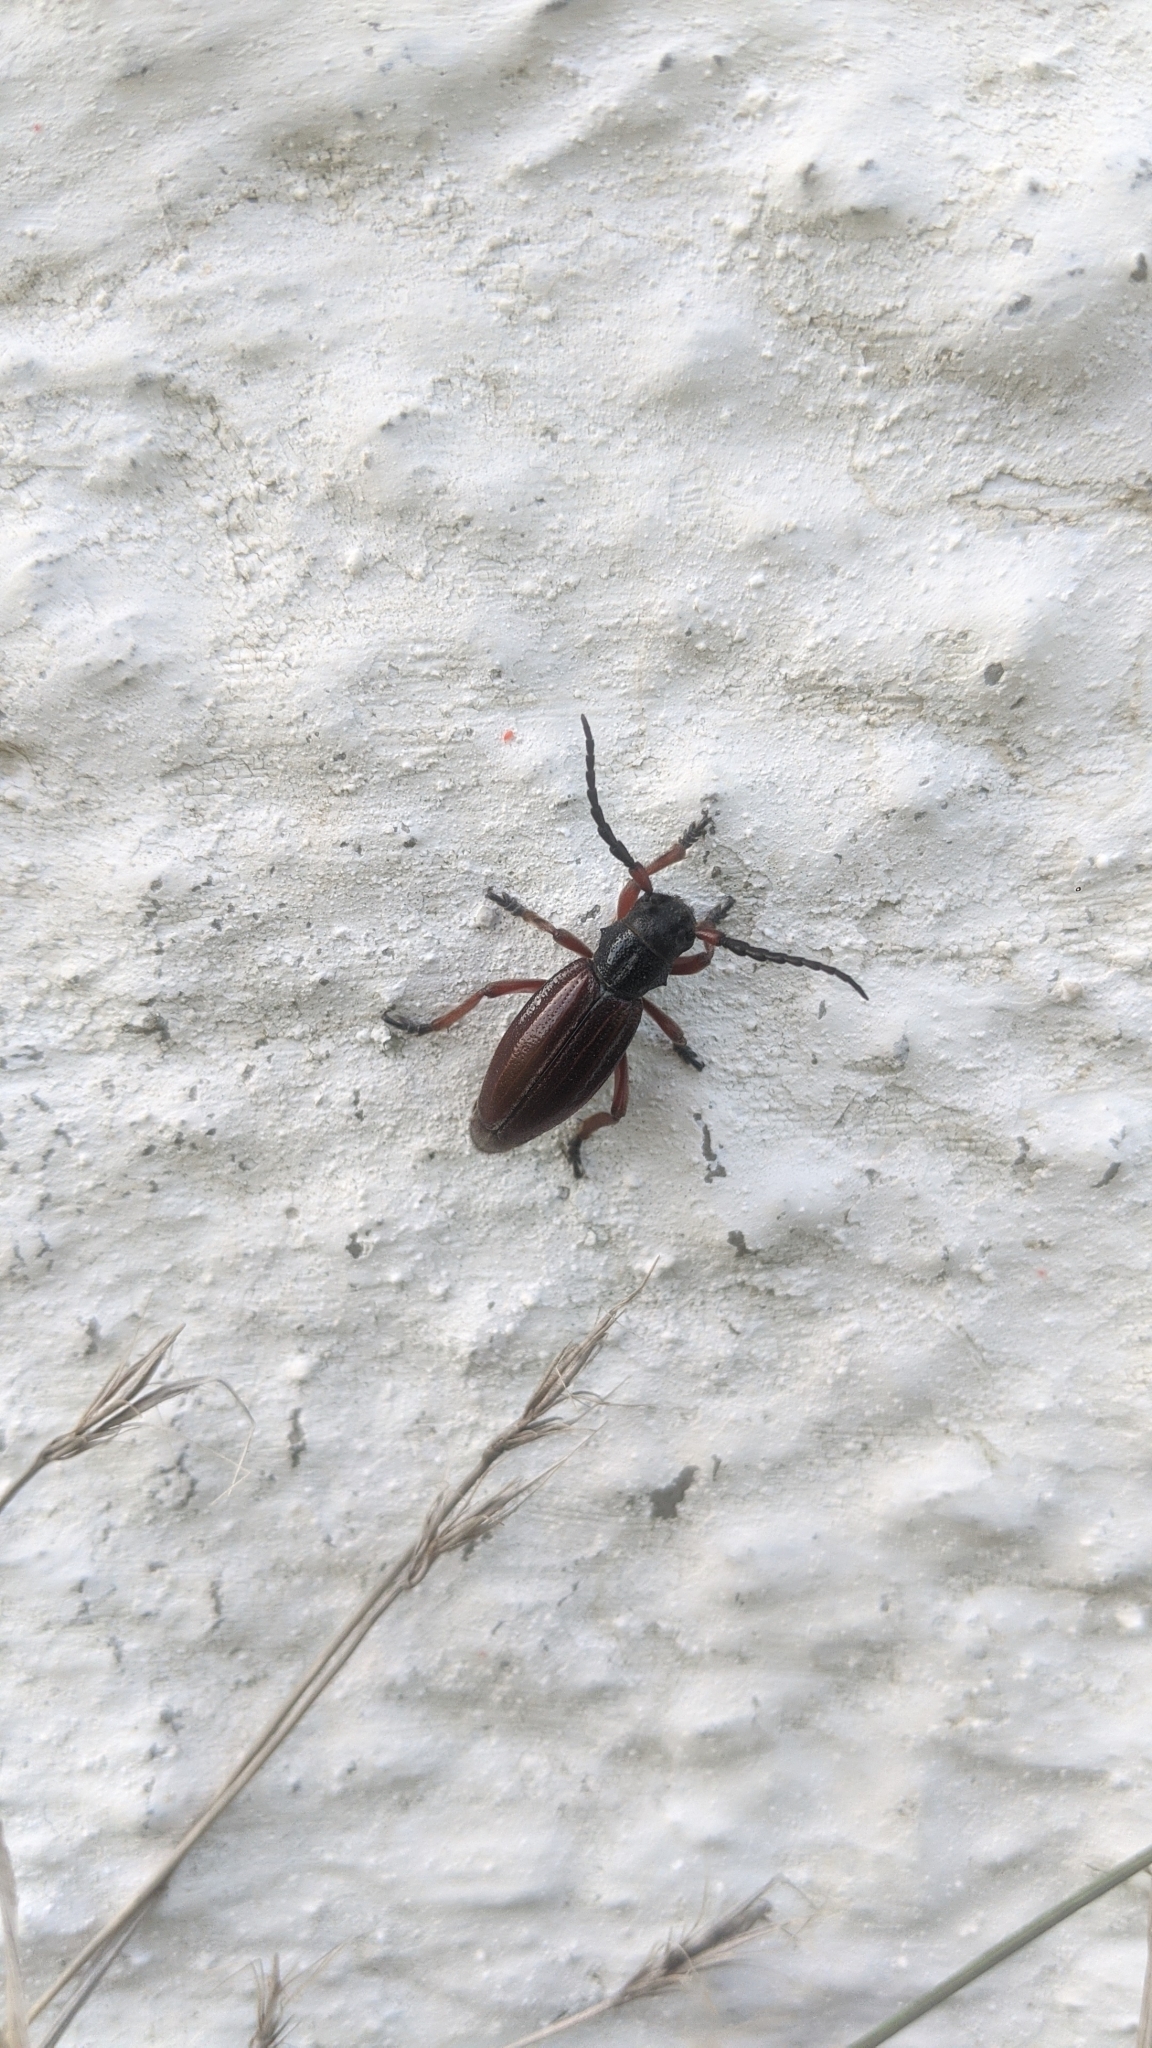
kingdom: Animalia
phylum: Arthropoda
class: Insecta
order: Coleoptera
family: Cerambycidae
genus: Dorcadion
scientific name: Dorcadion fulvum
